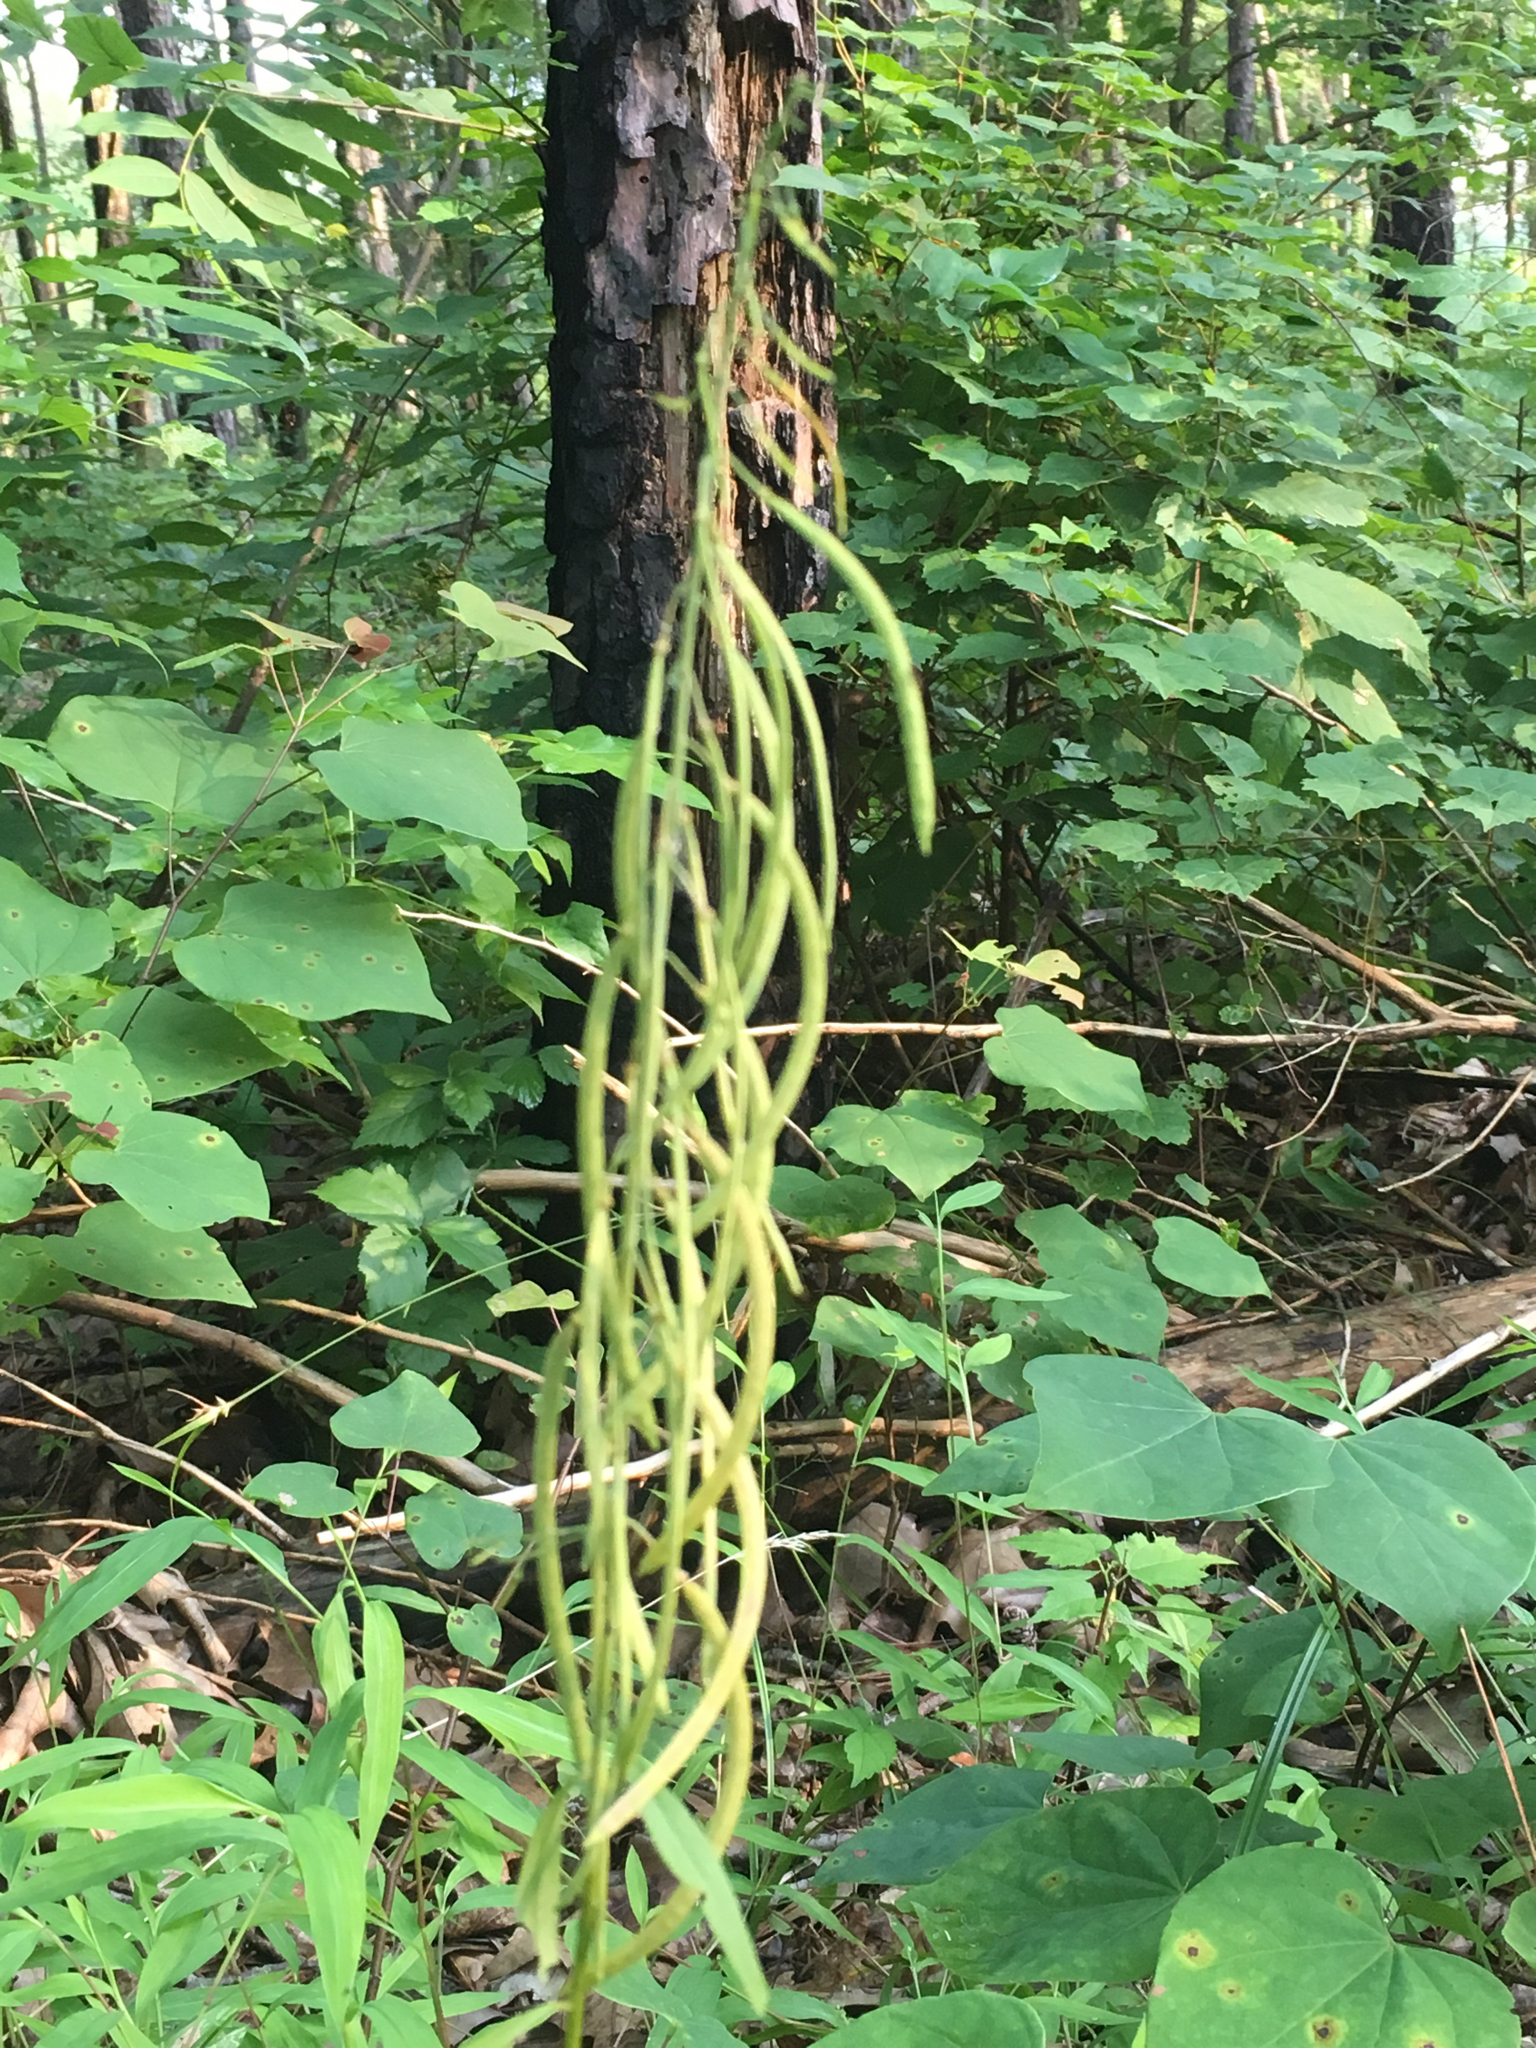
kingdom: Plantae
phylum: Tracheophyta
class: Magnoliopsida
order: Brassicales
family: Brassicaceae
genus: Borodinia
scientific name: Borodinia canadensis
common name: Sicklepod
